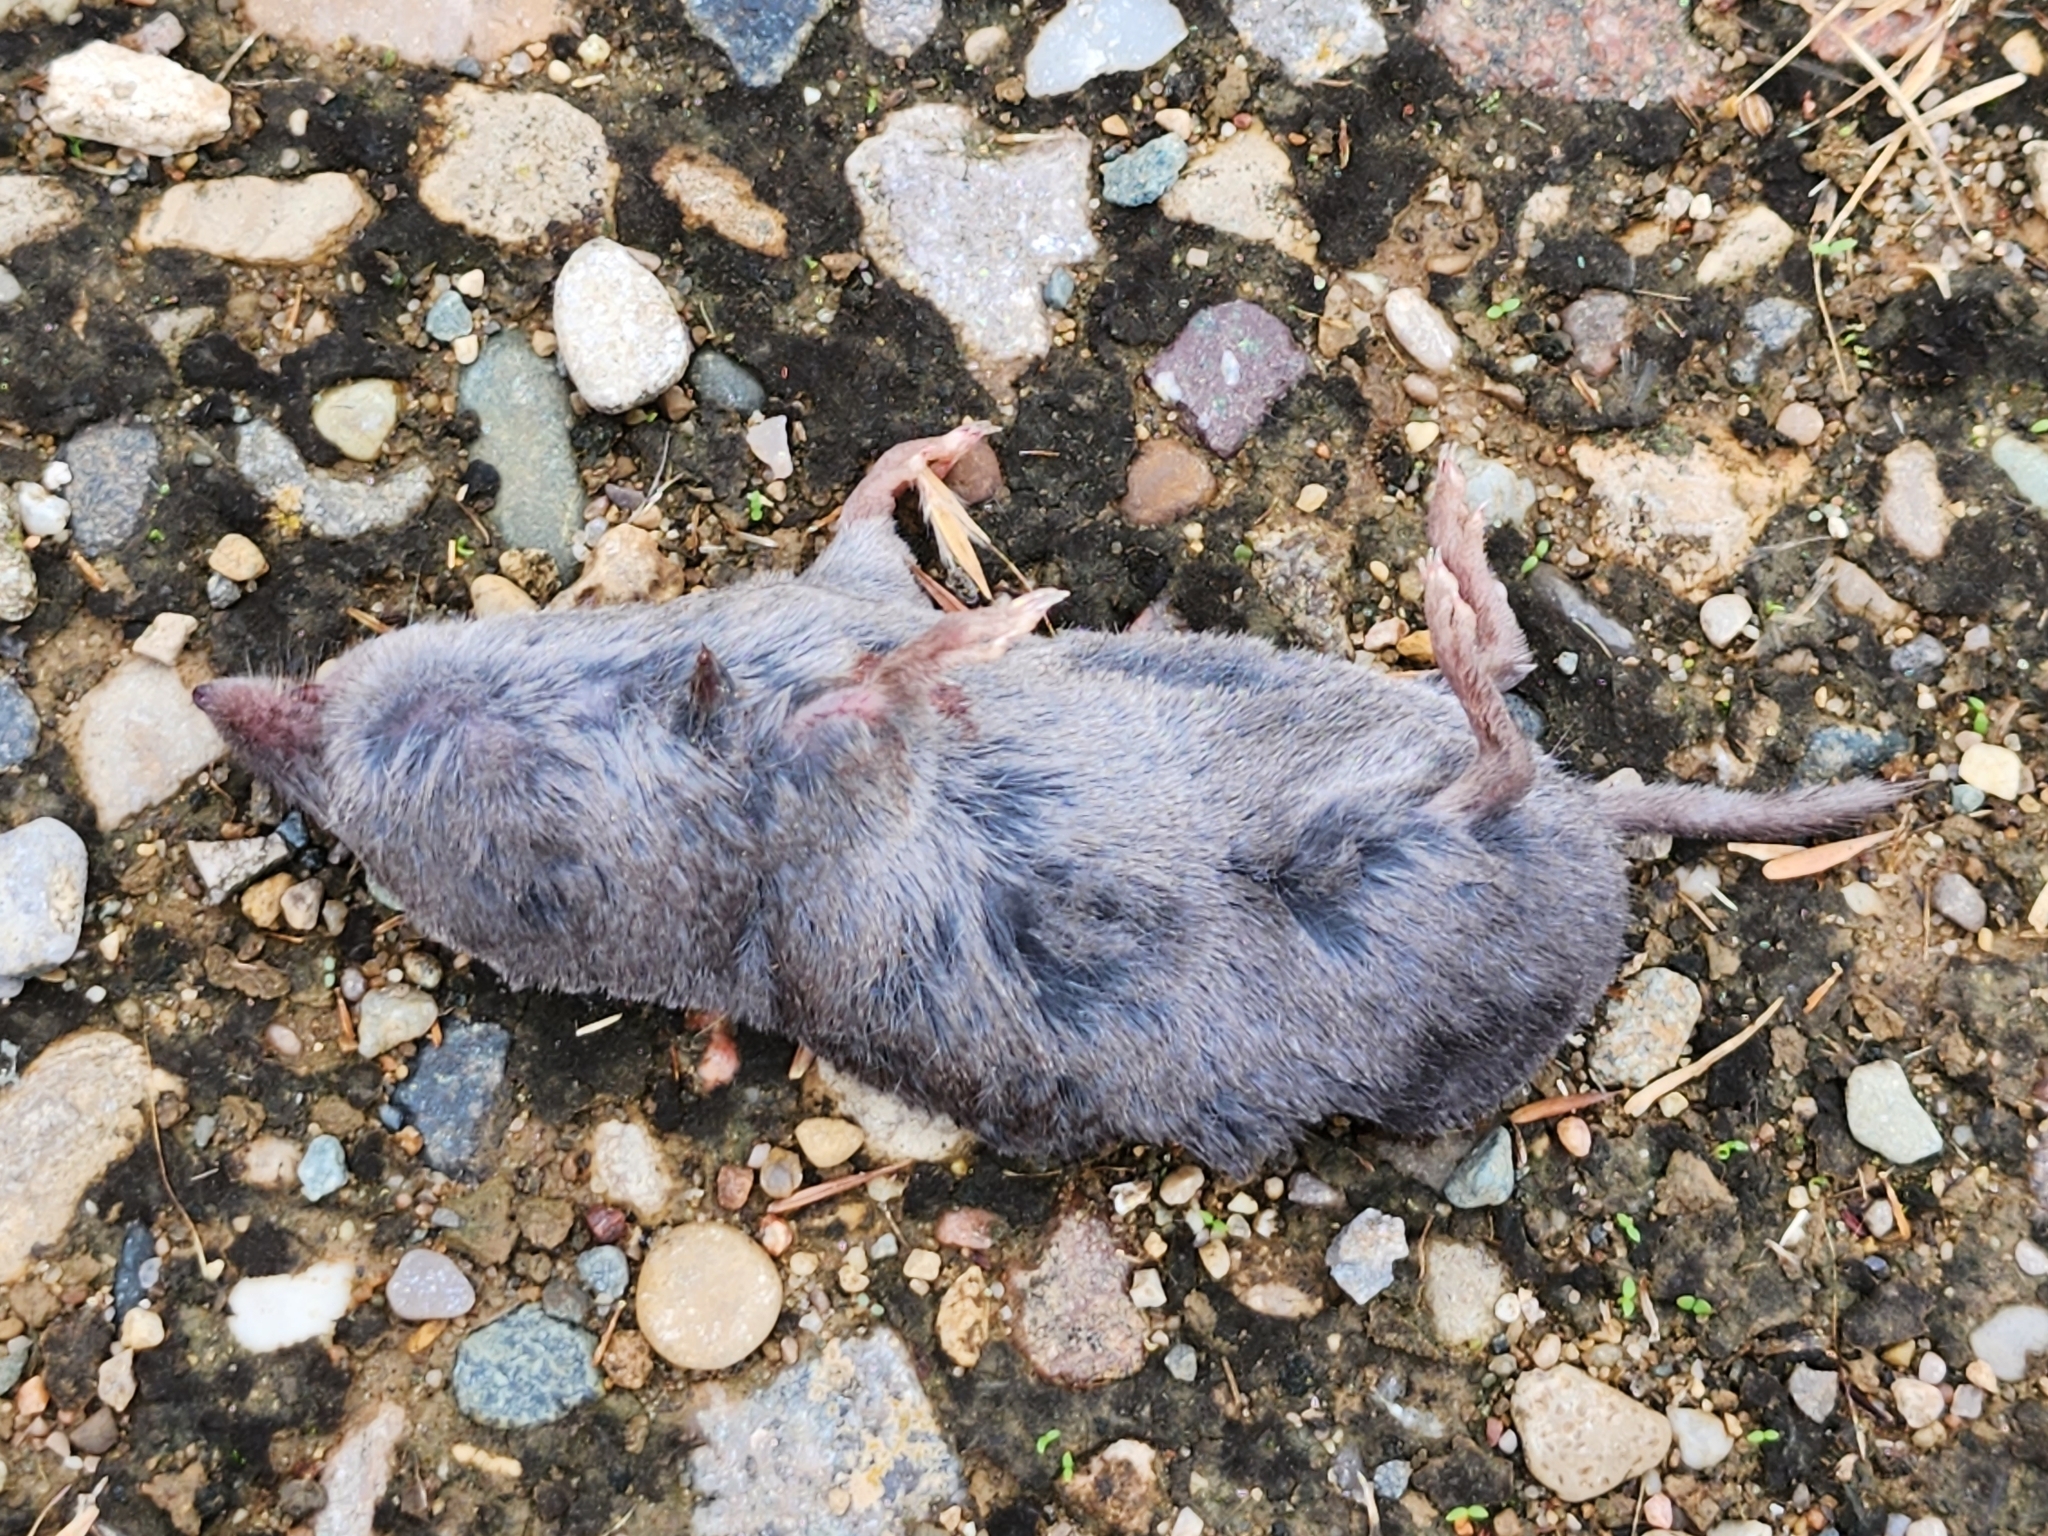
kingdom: Animalia
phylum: Chordata
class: Mammalia
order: Soricomorpha
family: Soricidae
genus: Blarina
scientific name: Blarina brevicauda
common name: Northern short-tailed shrew
